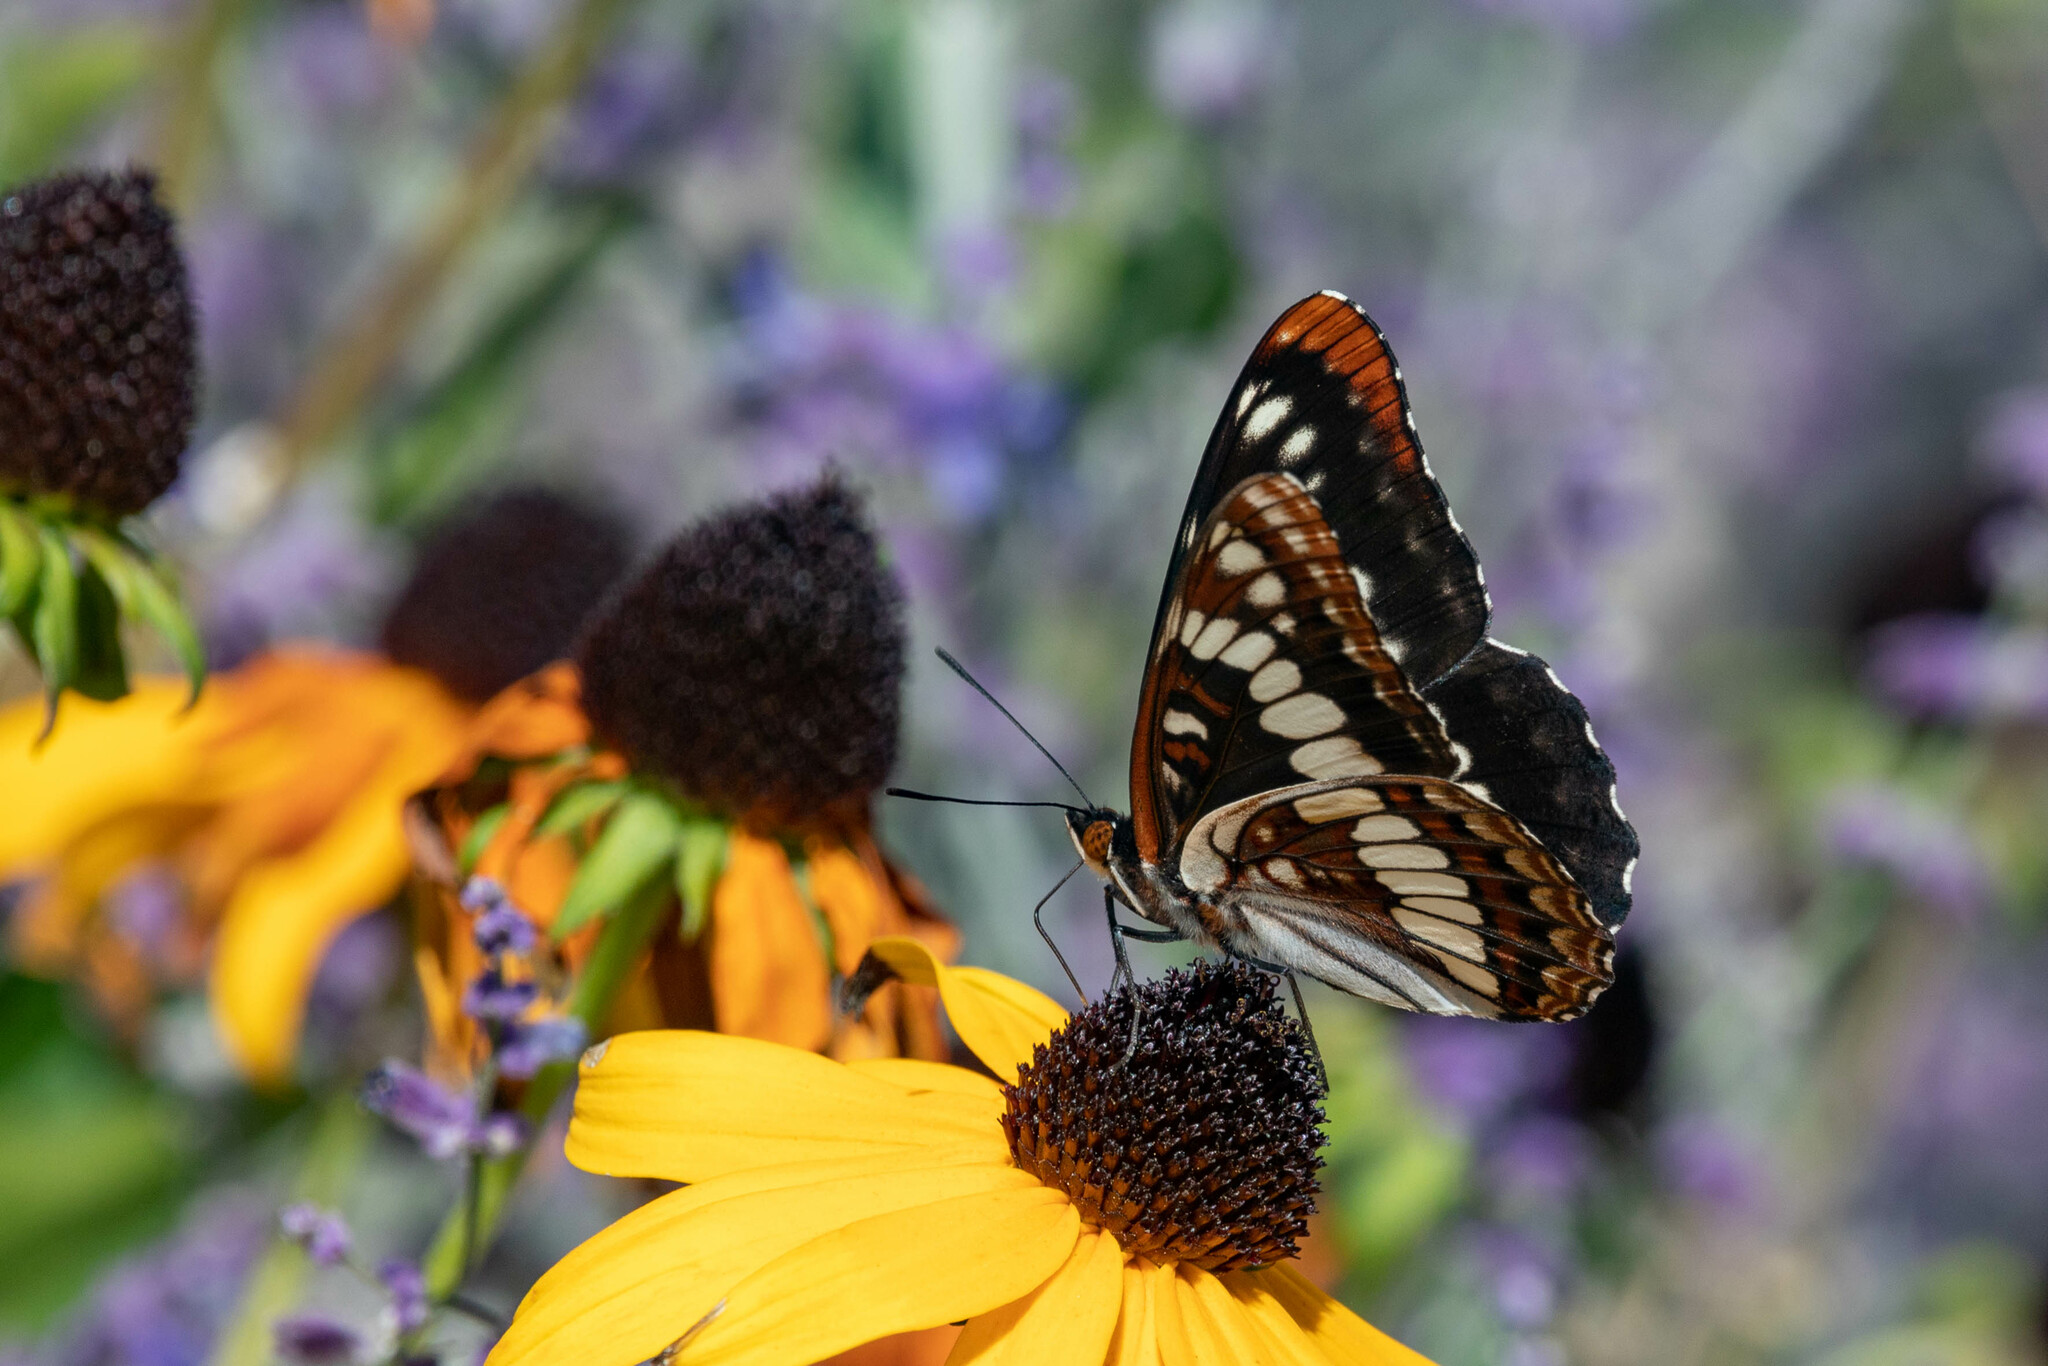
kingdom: Animalia
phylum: Arthropoda
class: Insecta
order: Lepidoptera
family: Nymphalidae
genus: Limenitis
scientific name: Limenitis lorquini
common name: Lorquin's admiral
